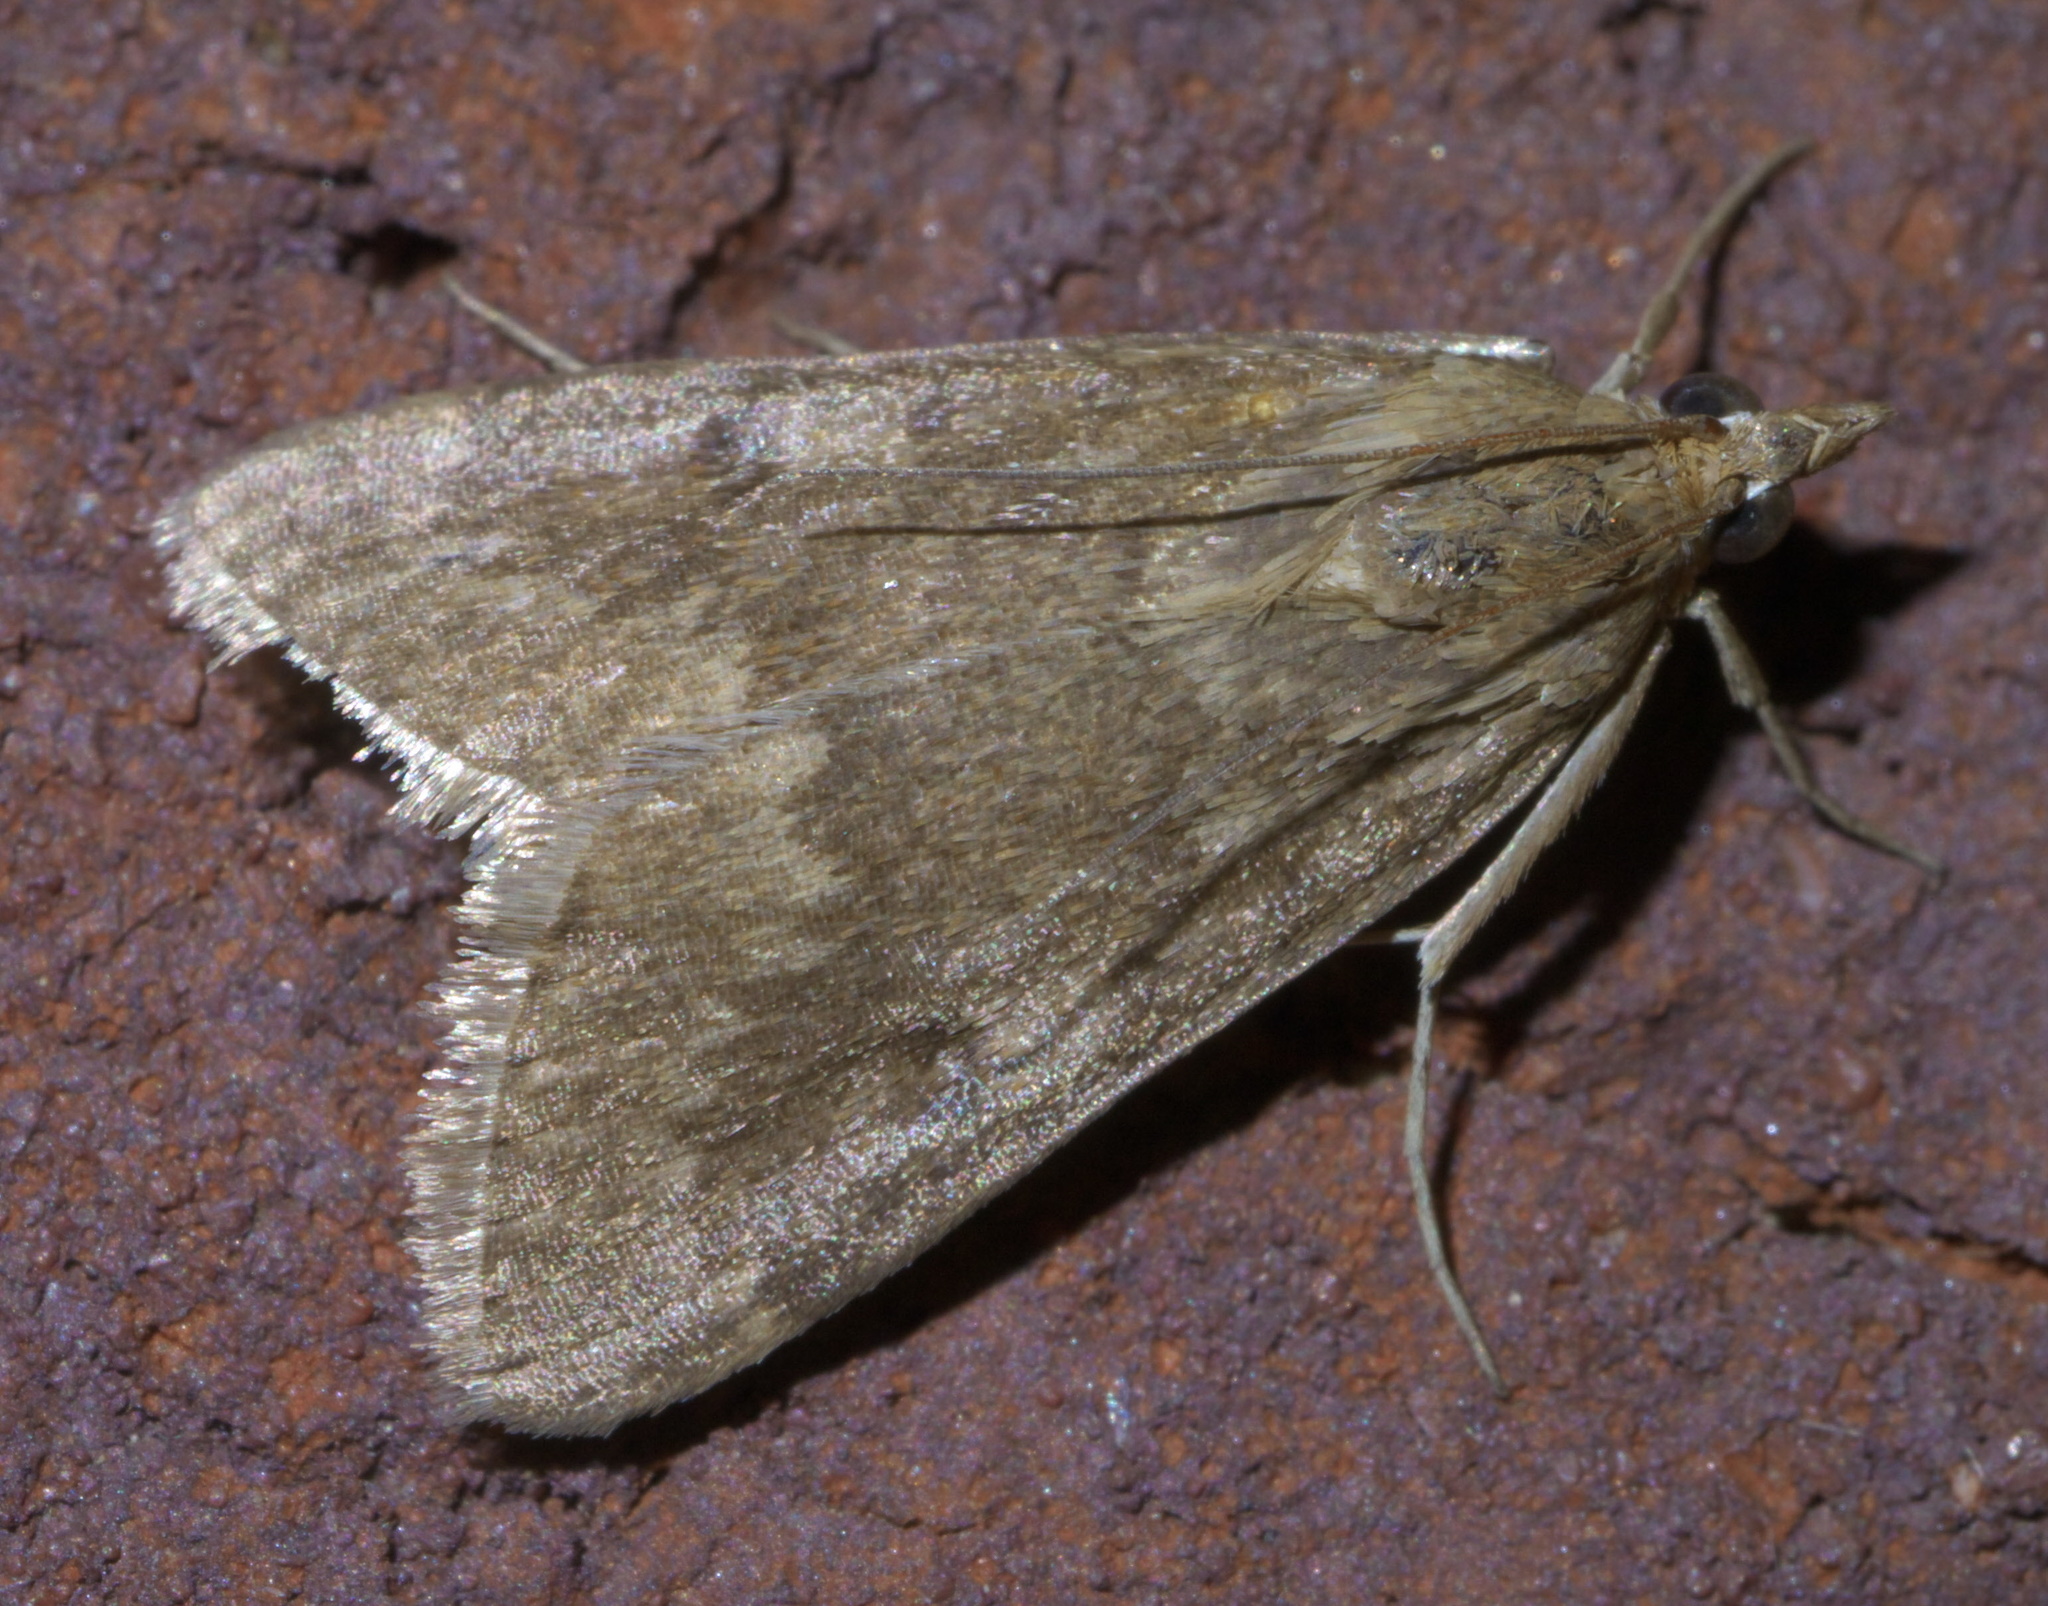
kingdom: Animalia
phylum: Arthropoda
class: Insecta
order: Lepidoptera
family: Crambidae
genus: Achyra
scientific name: Achyra rantalis
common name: Garden webworm
